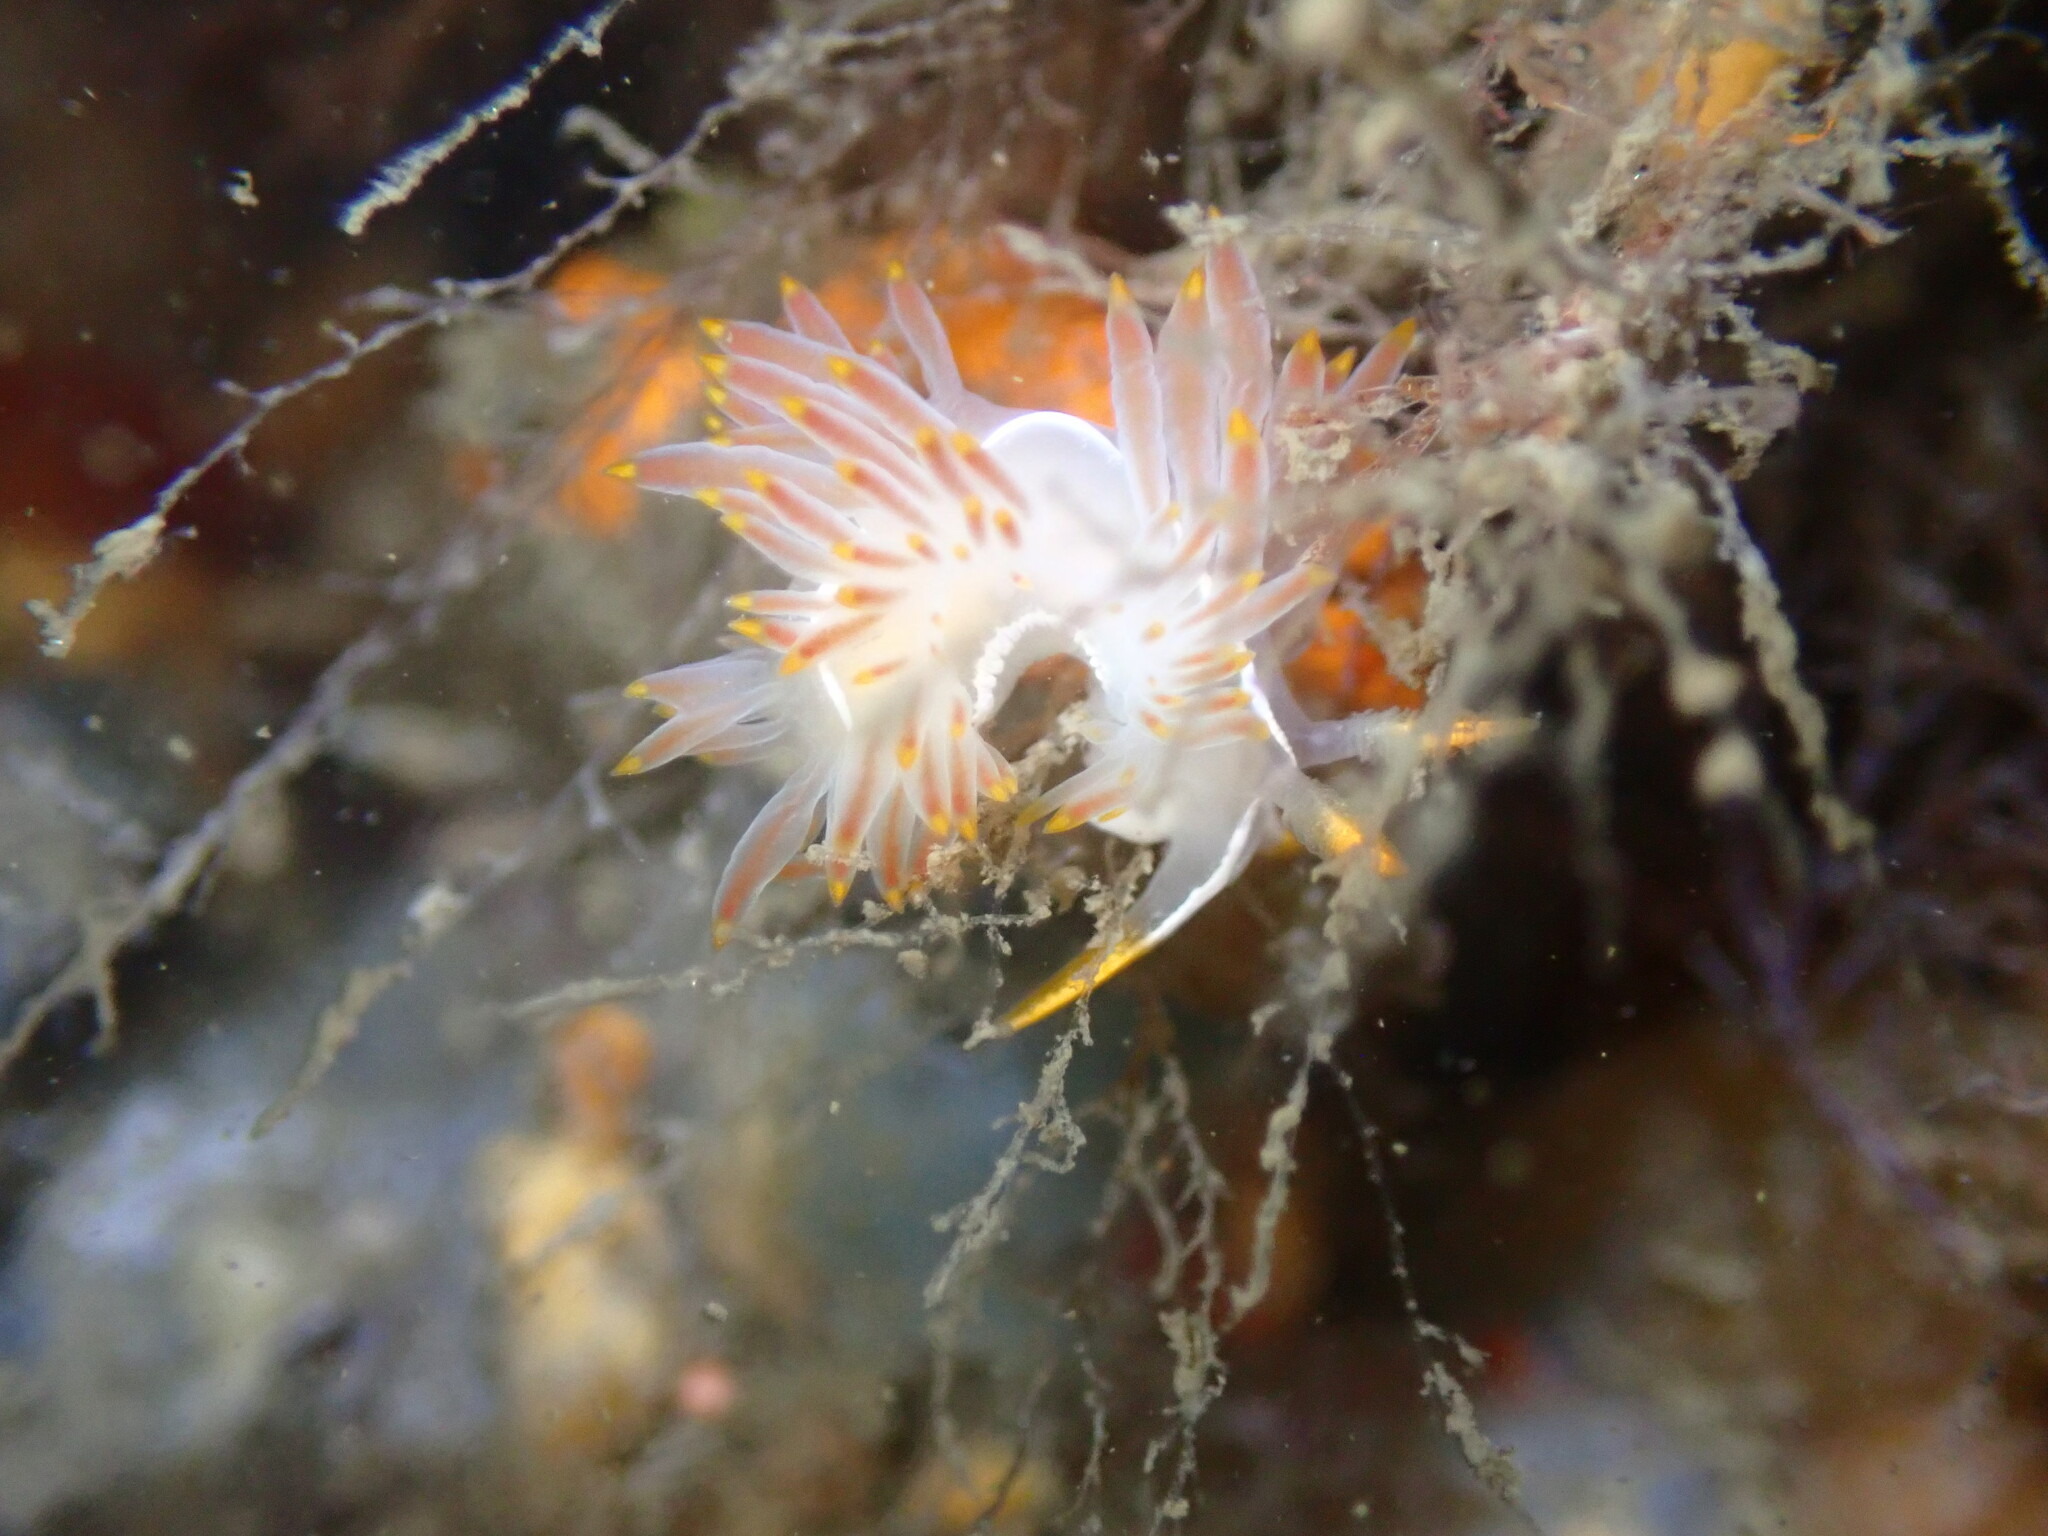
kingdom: Animalia
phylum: Mollusca
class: Gastropoda
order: Nudibranchia
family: Coryphellidae
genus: Coryphella
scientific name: Coryphella trilineata
